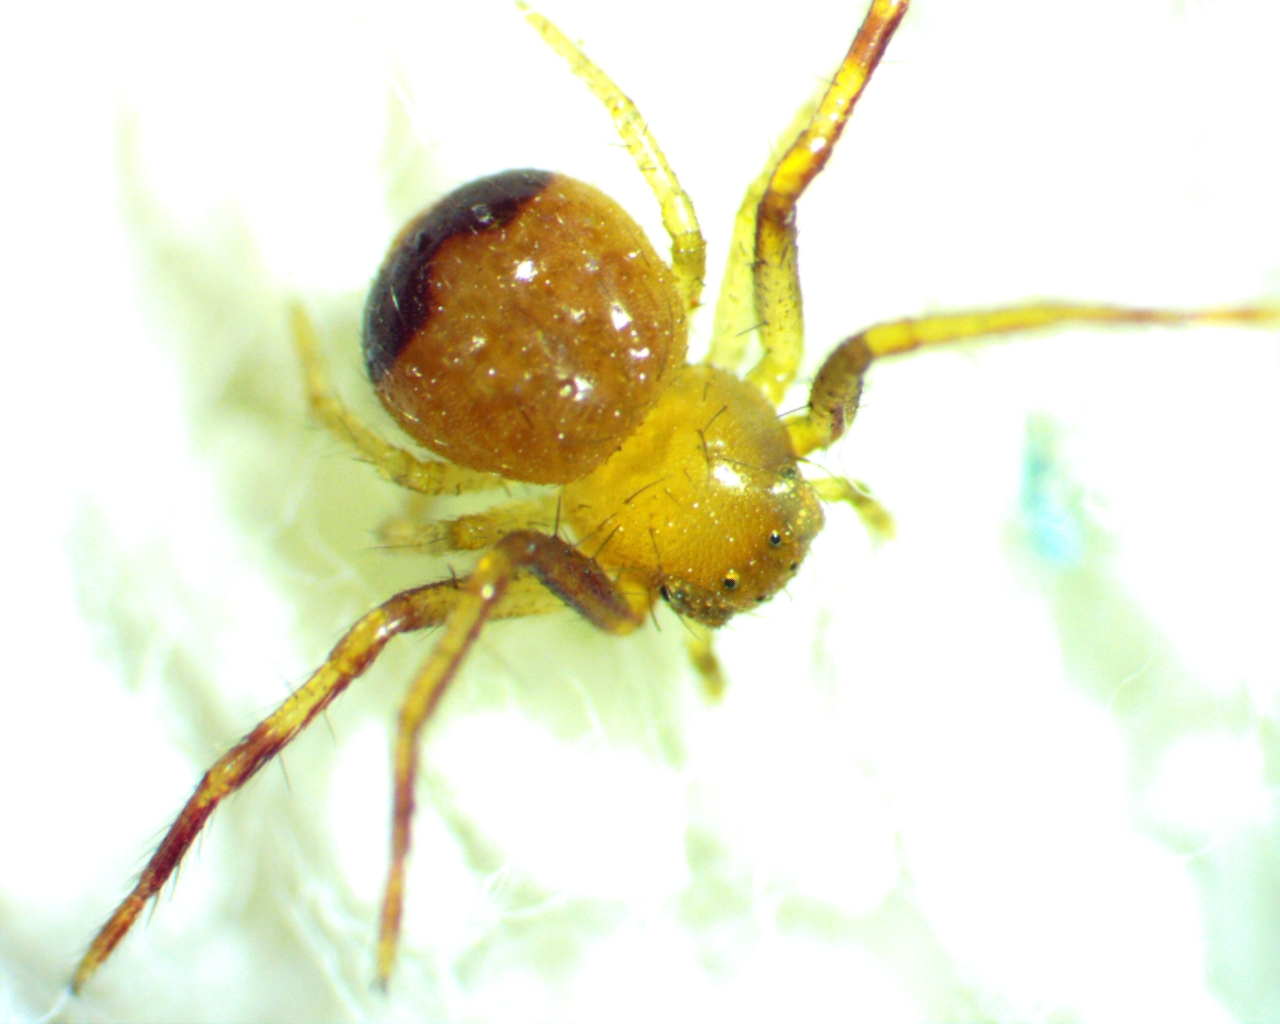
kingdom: Animalia
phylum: Arthropoda
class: Arachnida
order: Araneae
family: Thomisidae
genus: Synema
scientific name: Synema parvulum
